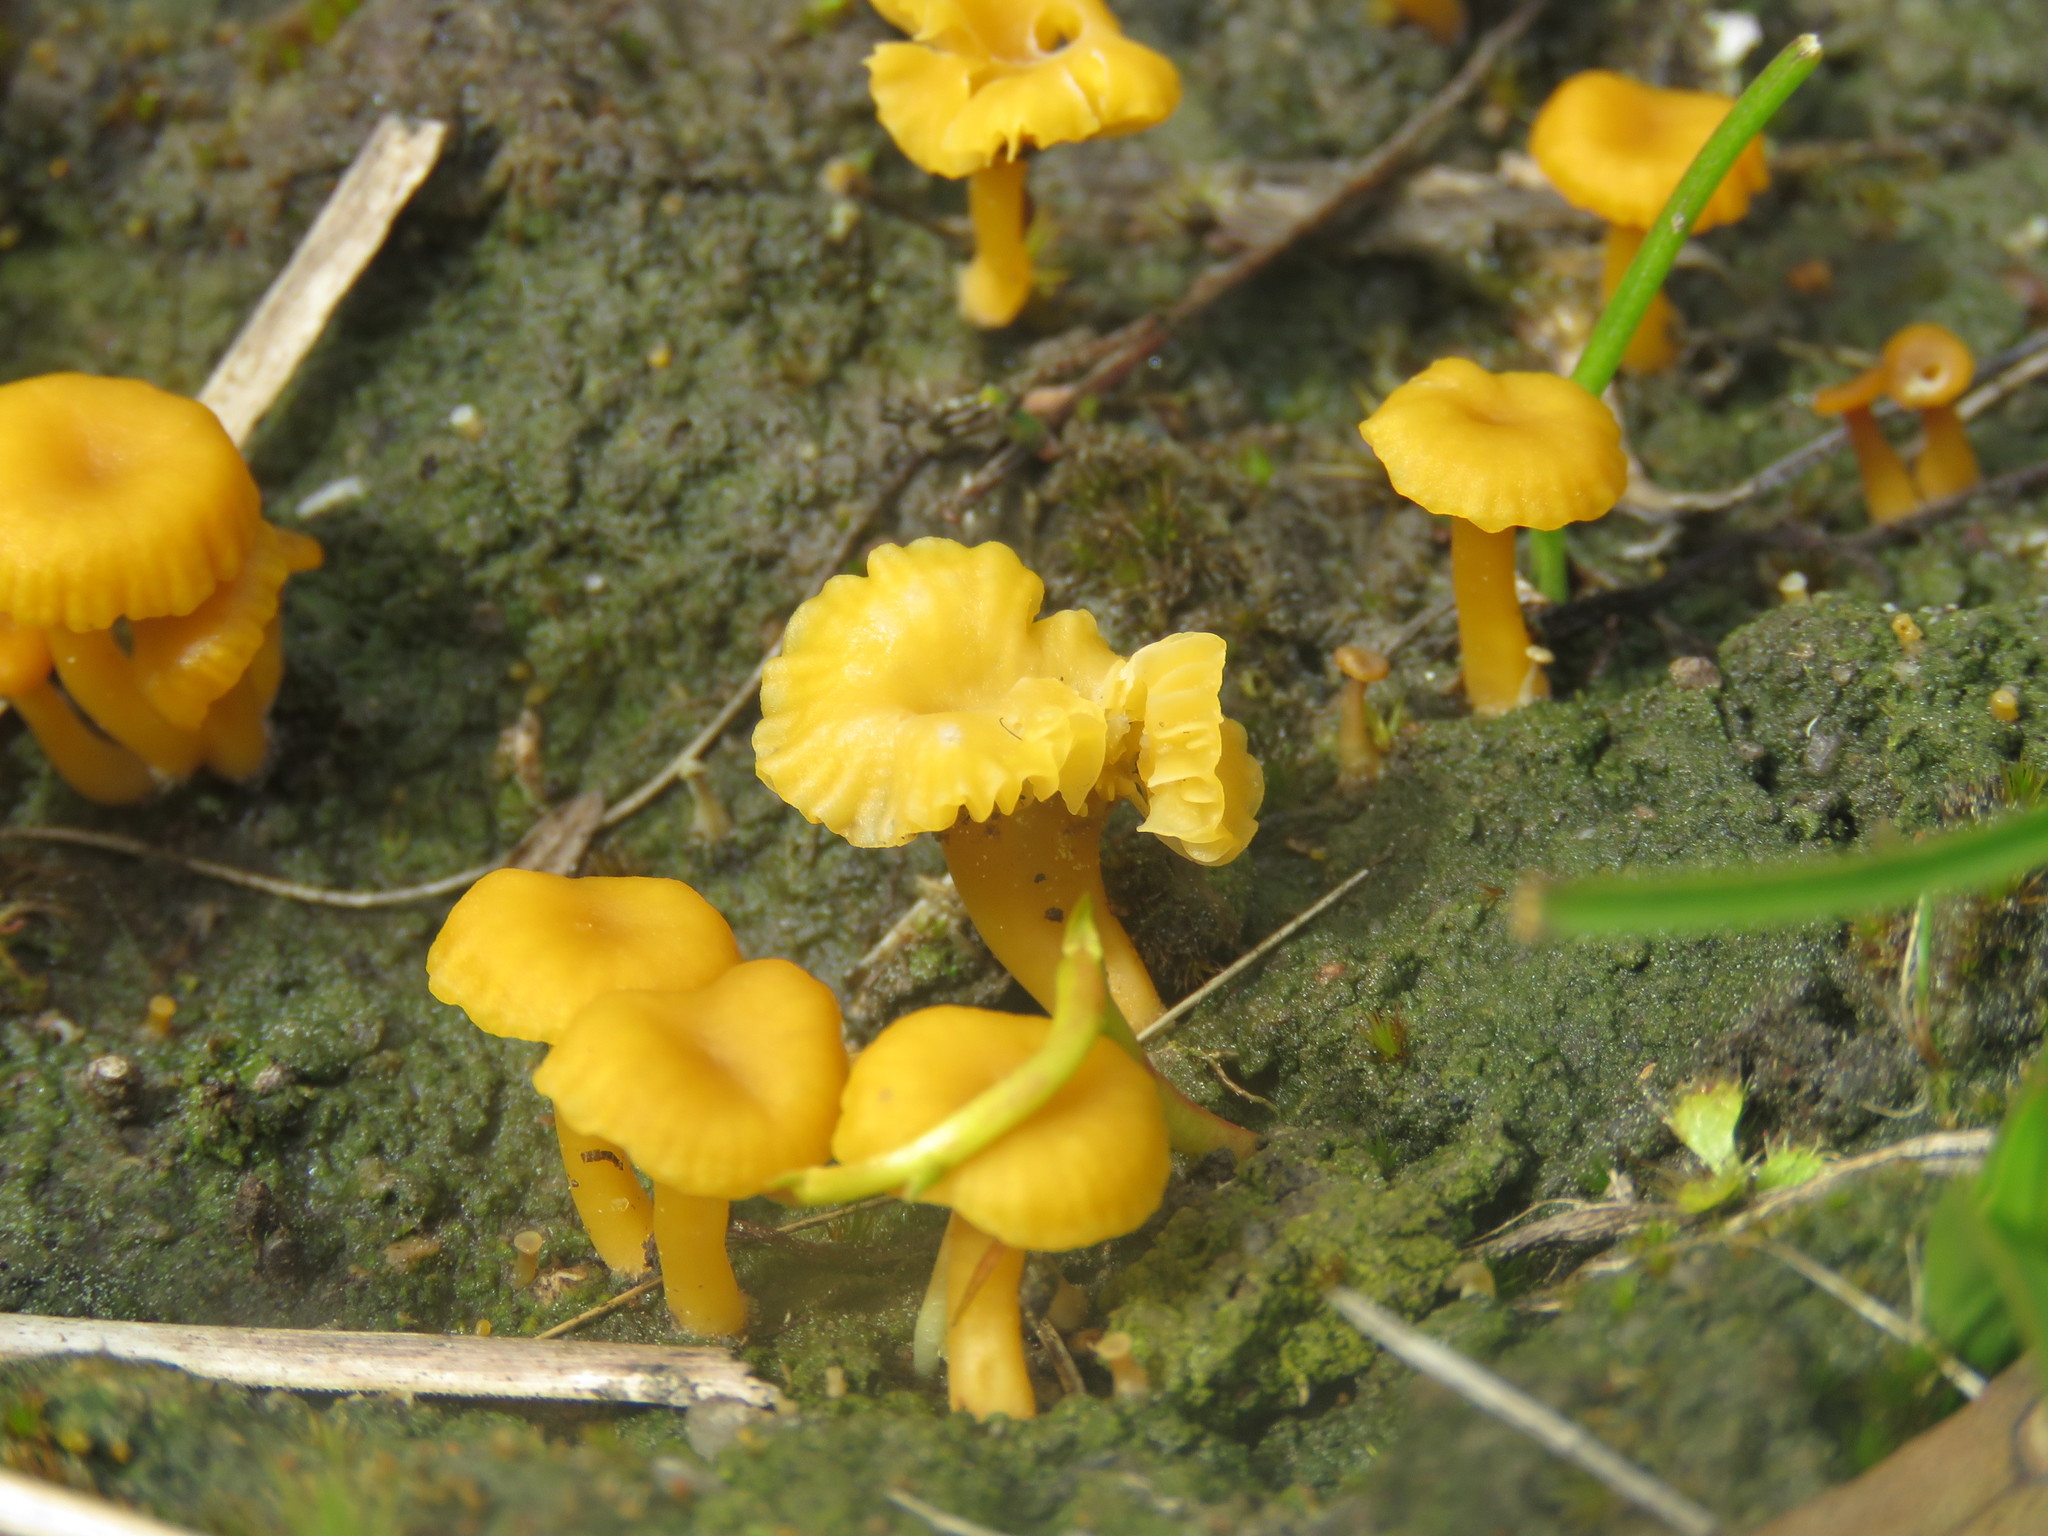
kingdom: Fungi
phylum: Basidiomycota
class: Agaricomycetes
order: Agaricales
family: Hygrophoraceae
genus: Lichenomphalia
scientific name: Lichenomphalia chromacea
